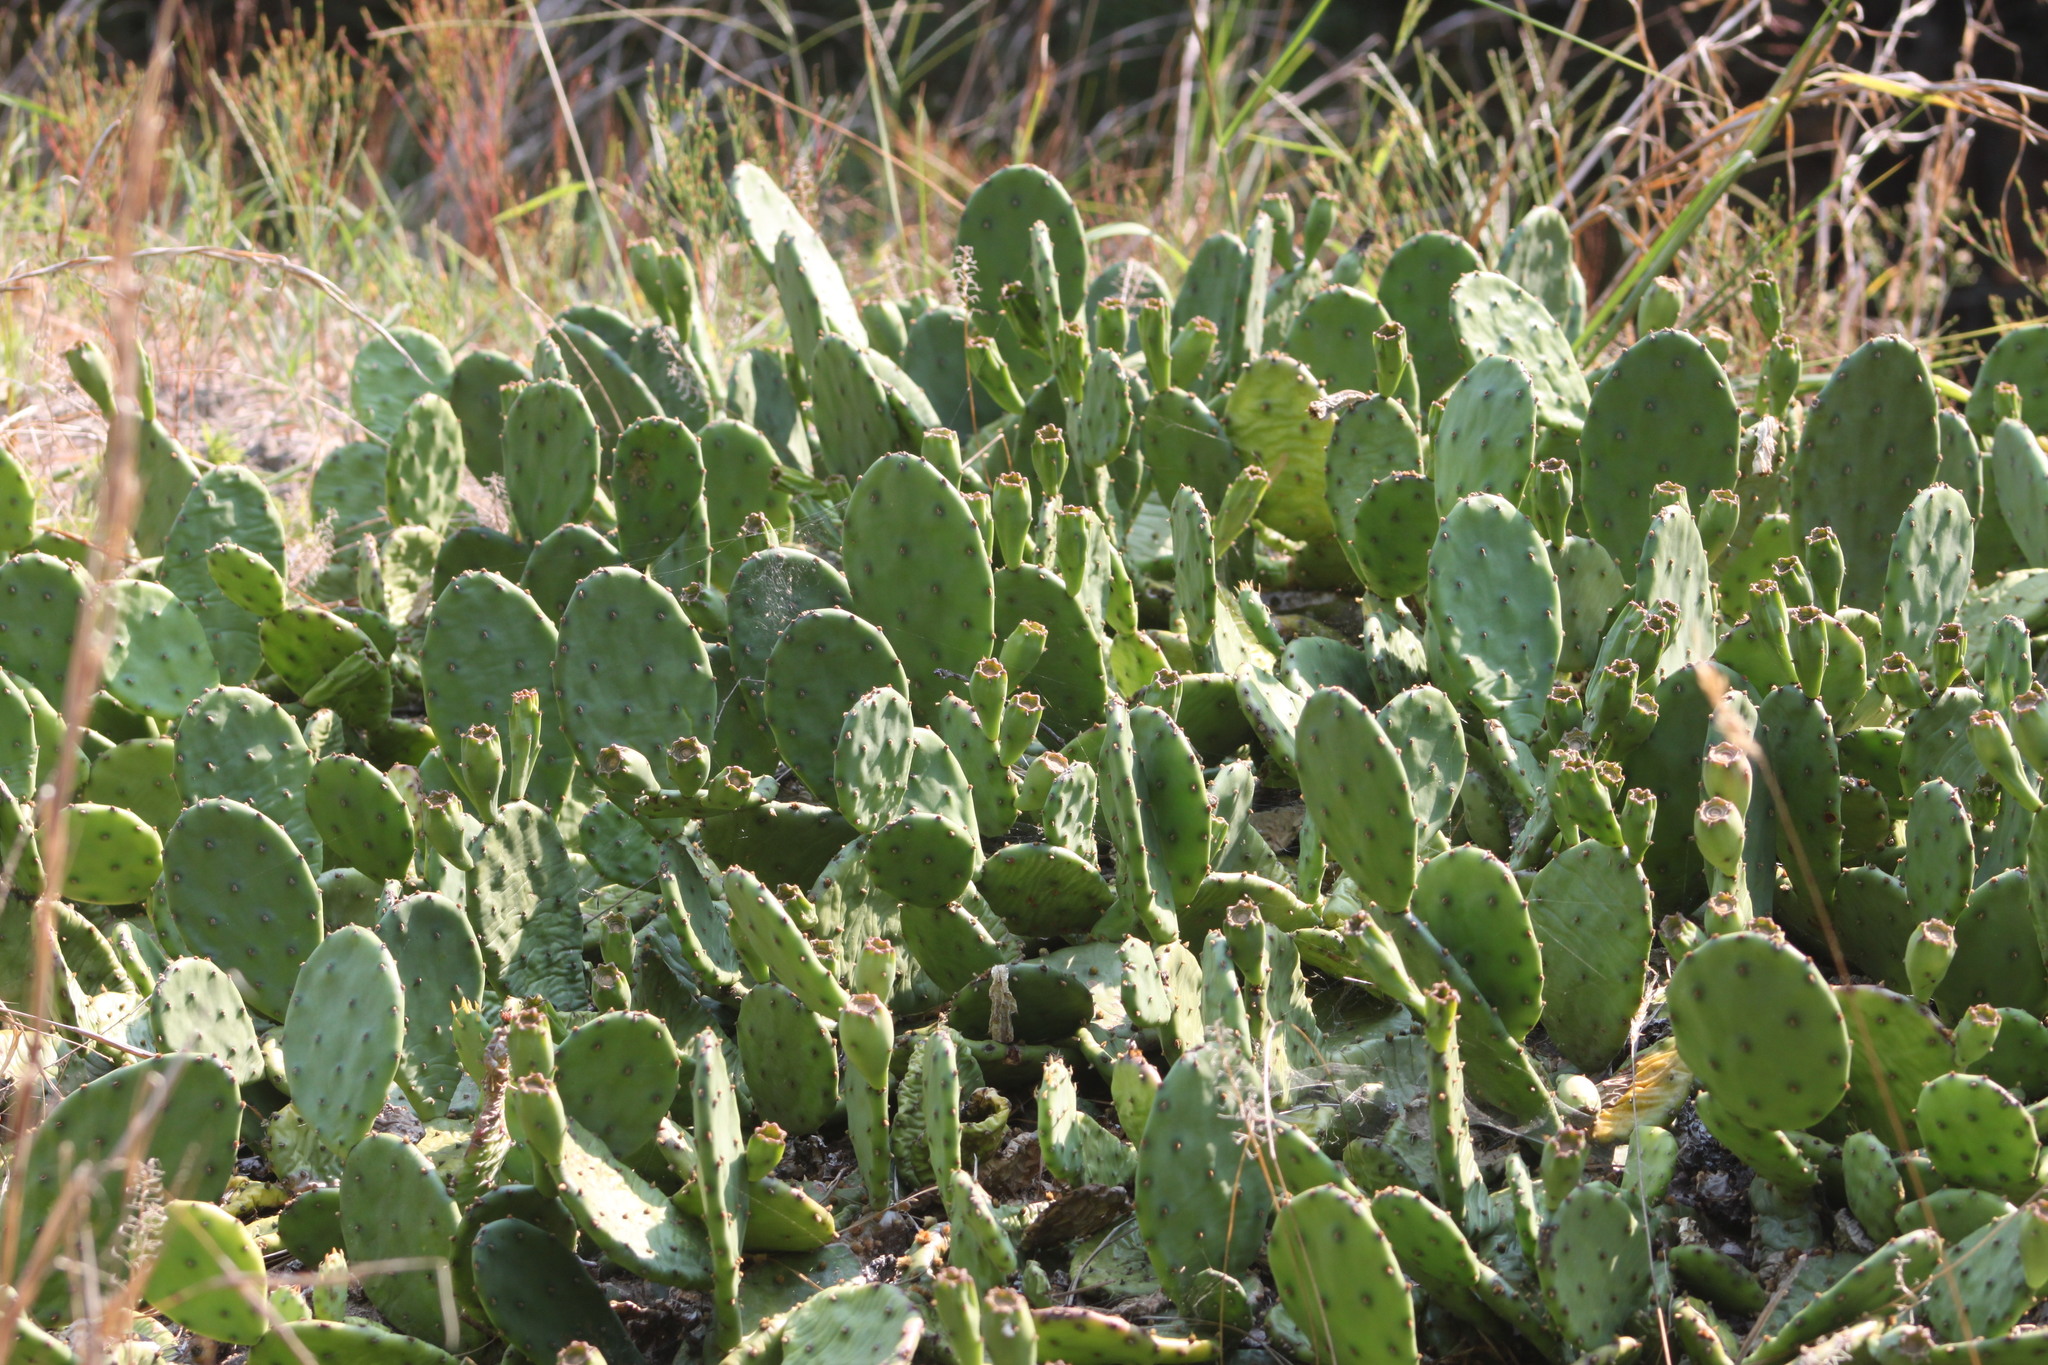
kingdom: Plantae
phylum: Tracheophyta
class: Magnoliopsida
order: Caryophyllales
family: Cactaceae
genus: Opuntia
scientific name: Opuntia humifusa
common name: Eastern prickly-pear
